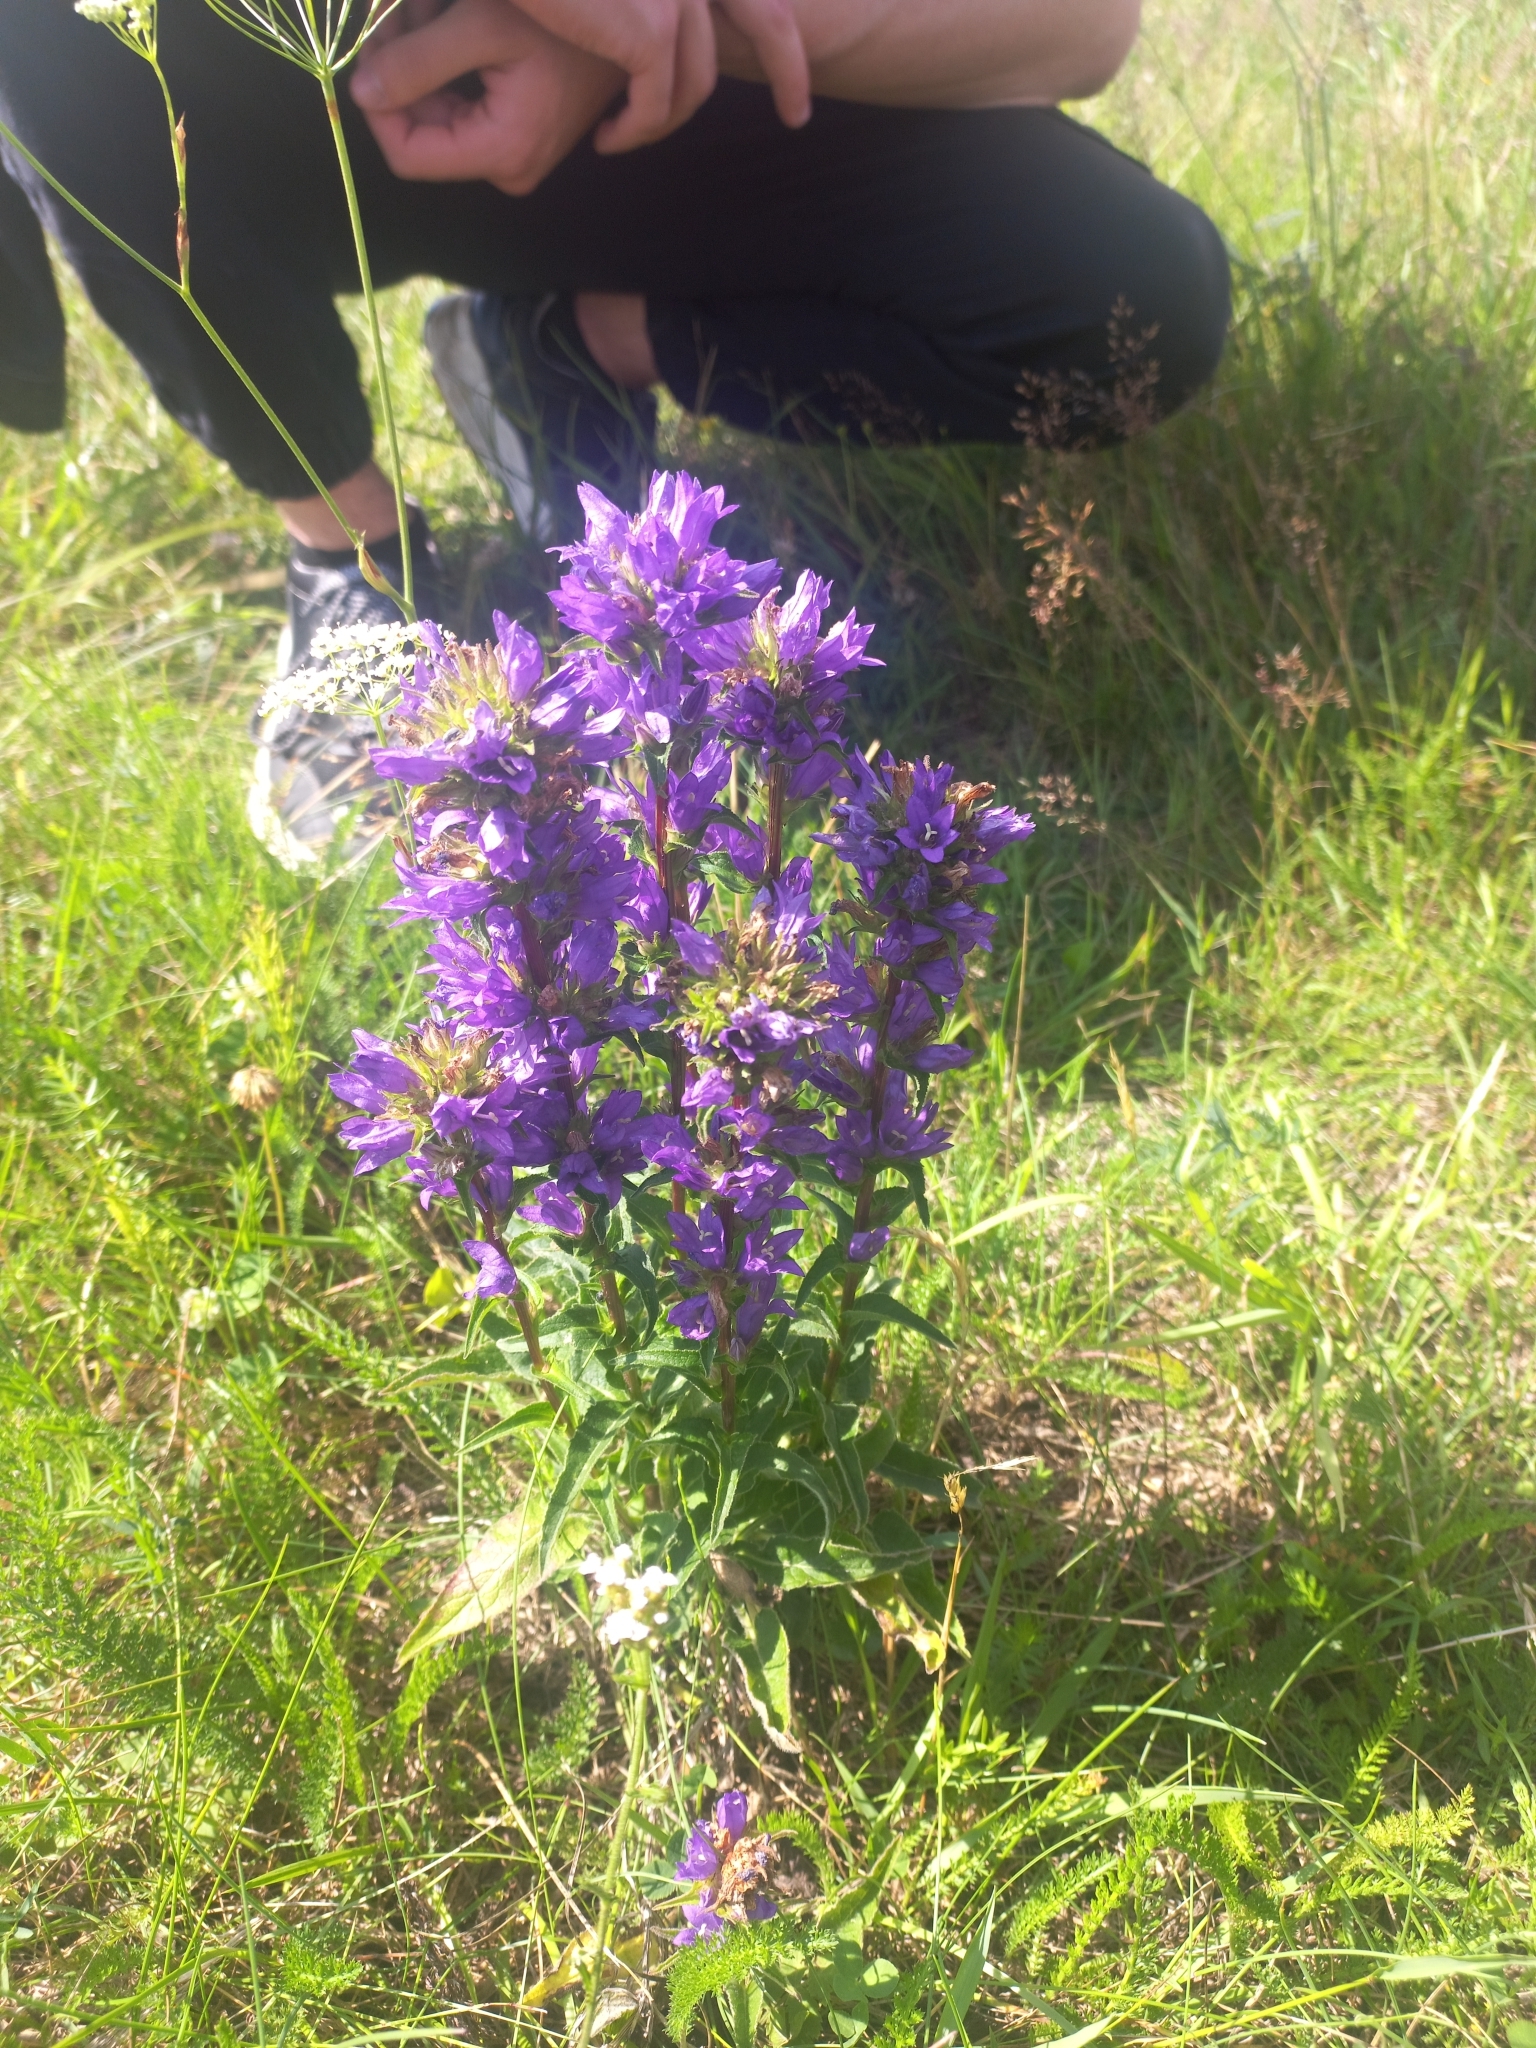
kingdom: Plantae
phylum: Tracheophyta
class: Magnoliopsida
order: Asterales
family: Campanulaceae
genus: Campanula
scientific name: Campanula glomerata
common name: Clustered bellflower
